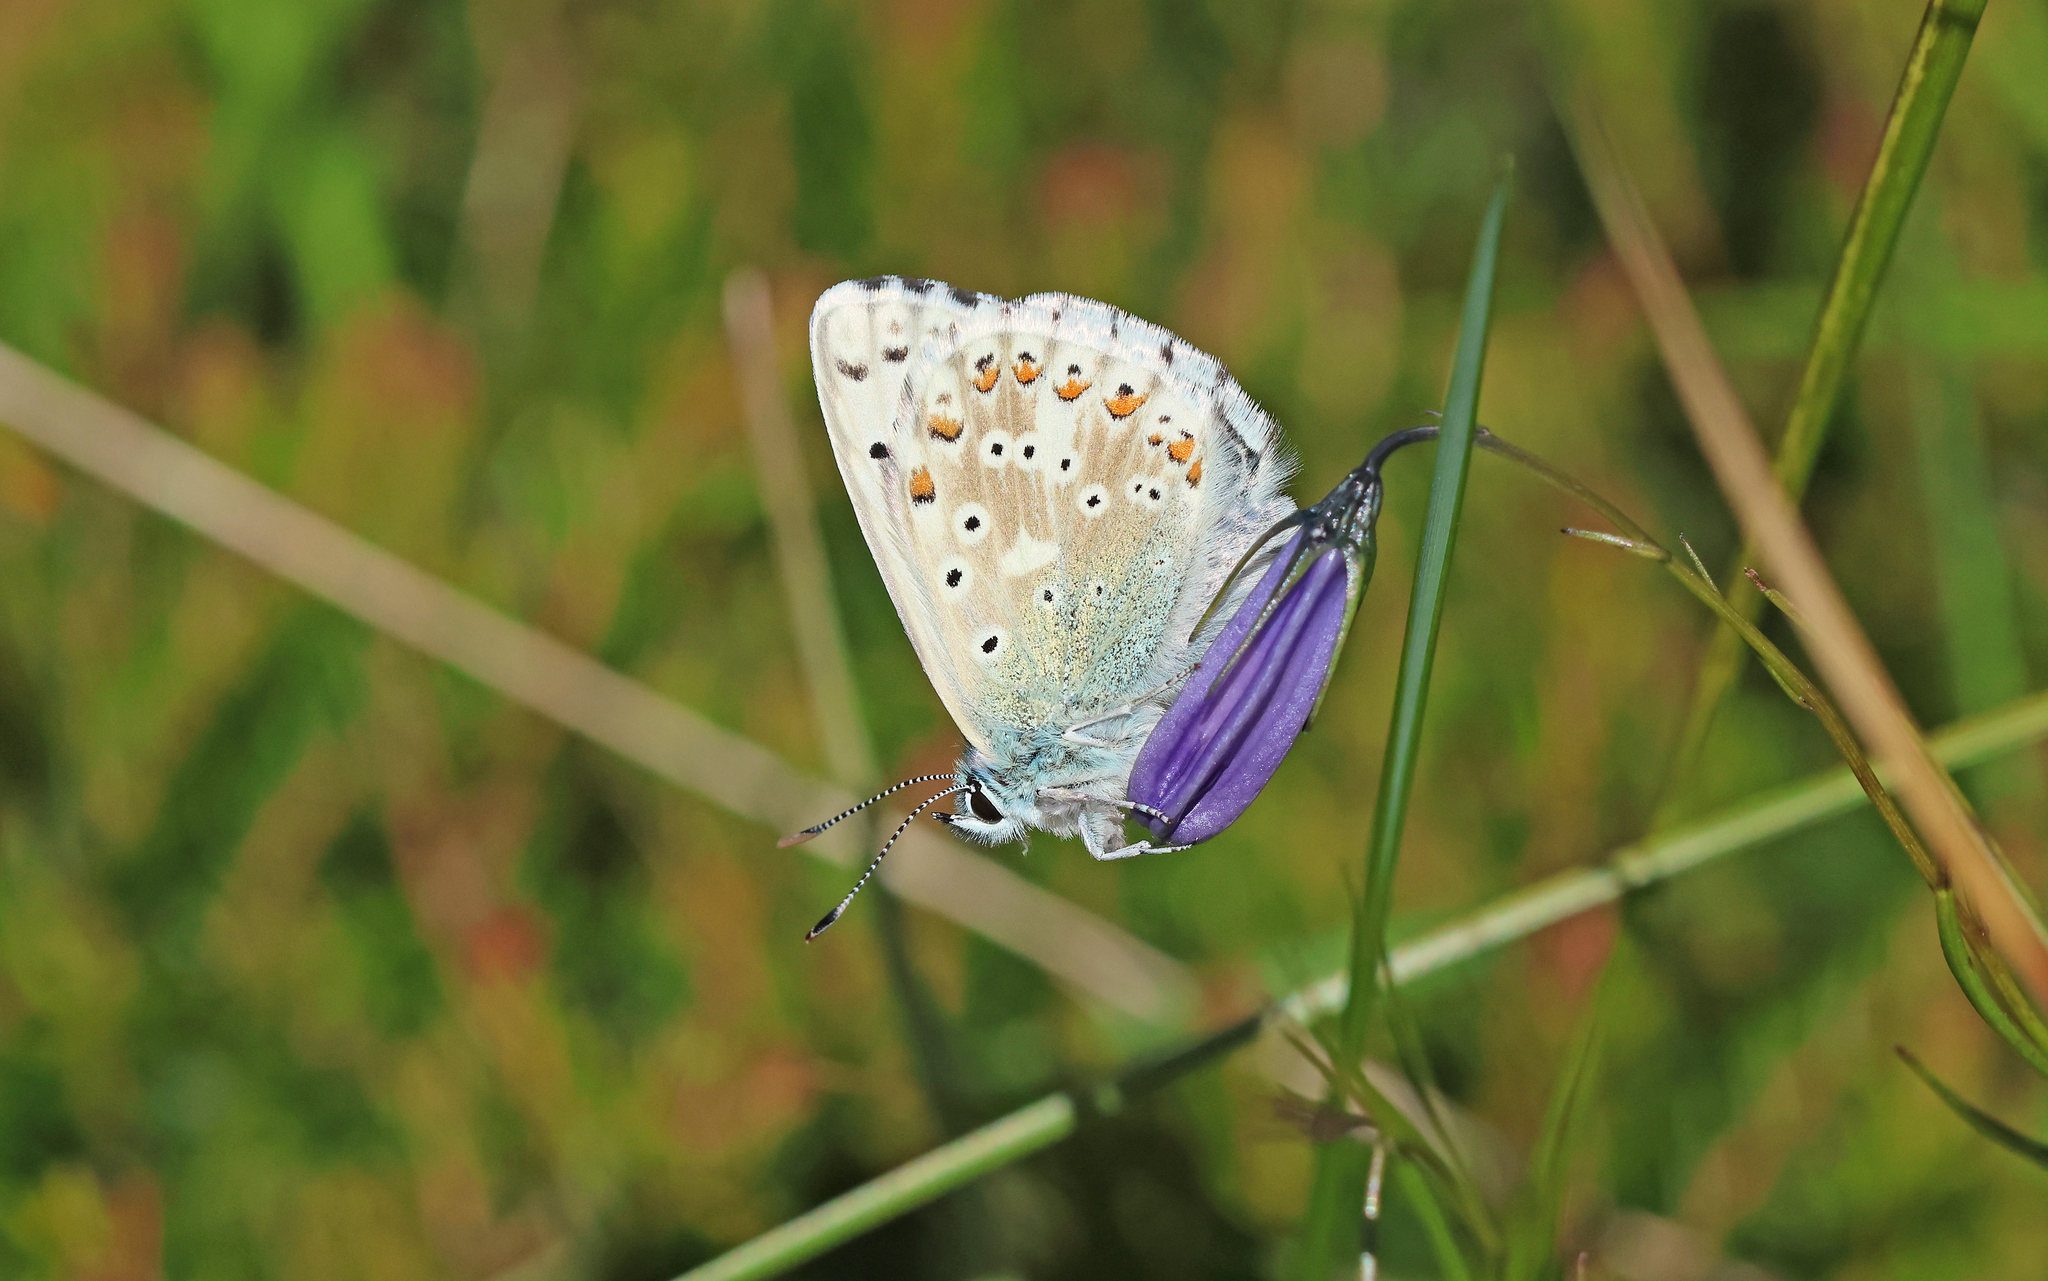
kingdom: Animalia
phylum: Arthropoda
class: Insecta
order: Lepidoptera
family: Lycaenidae
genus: Lysandra
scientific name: Lysandra coridon
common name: Chalkhill blue
